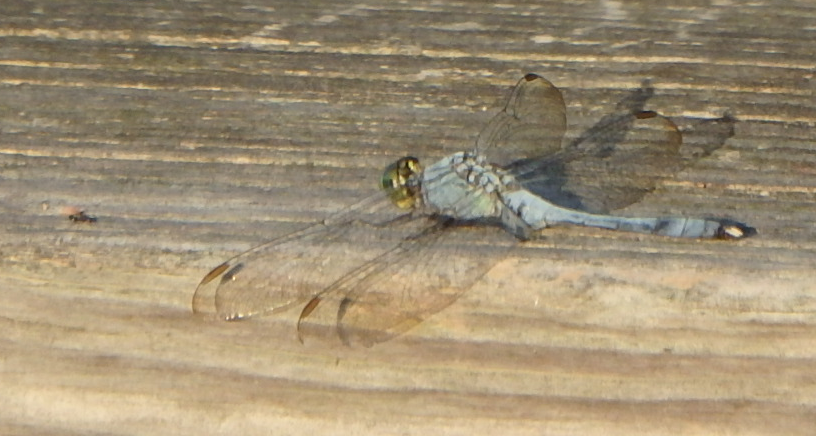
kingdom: Animalia
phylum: Arthropoda
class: Insecta
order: Odonata
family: Libellulidae
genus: Erythemis
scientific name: Erythemis simplicicollis
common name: Eastern pondhawk
